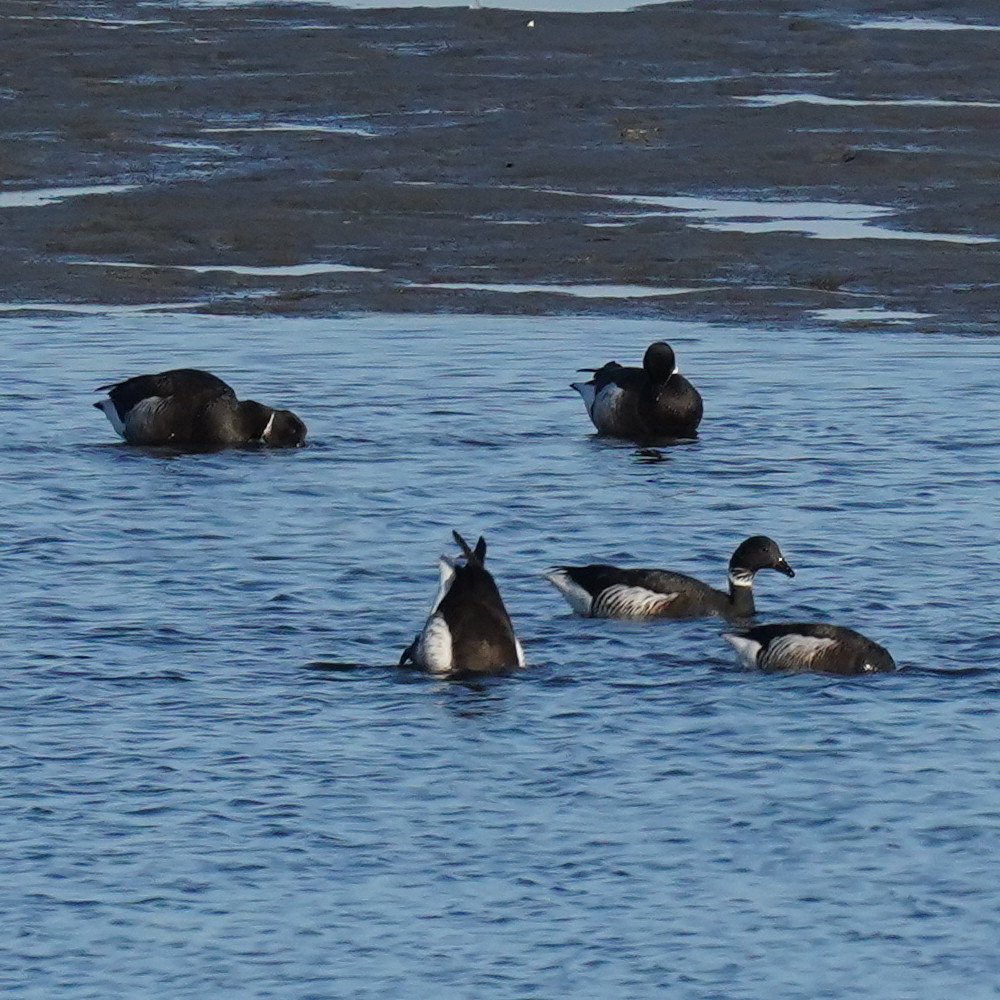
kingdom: Animalia
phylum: Chordata
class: Aves
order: Anseriformes
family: Anatidae
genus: Branta
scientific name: Branta bernicla
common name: Brant goose
